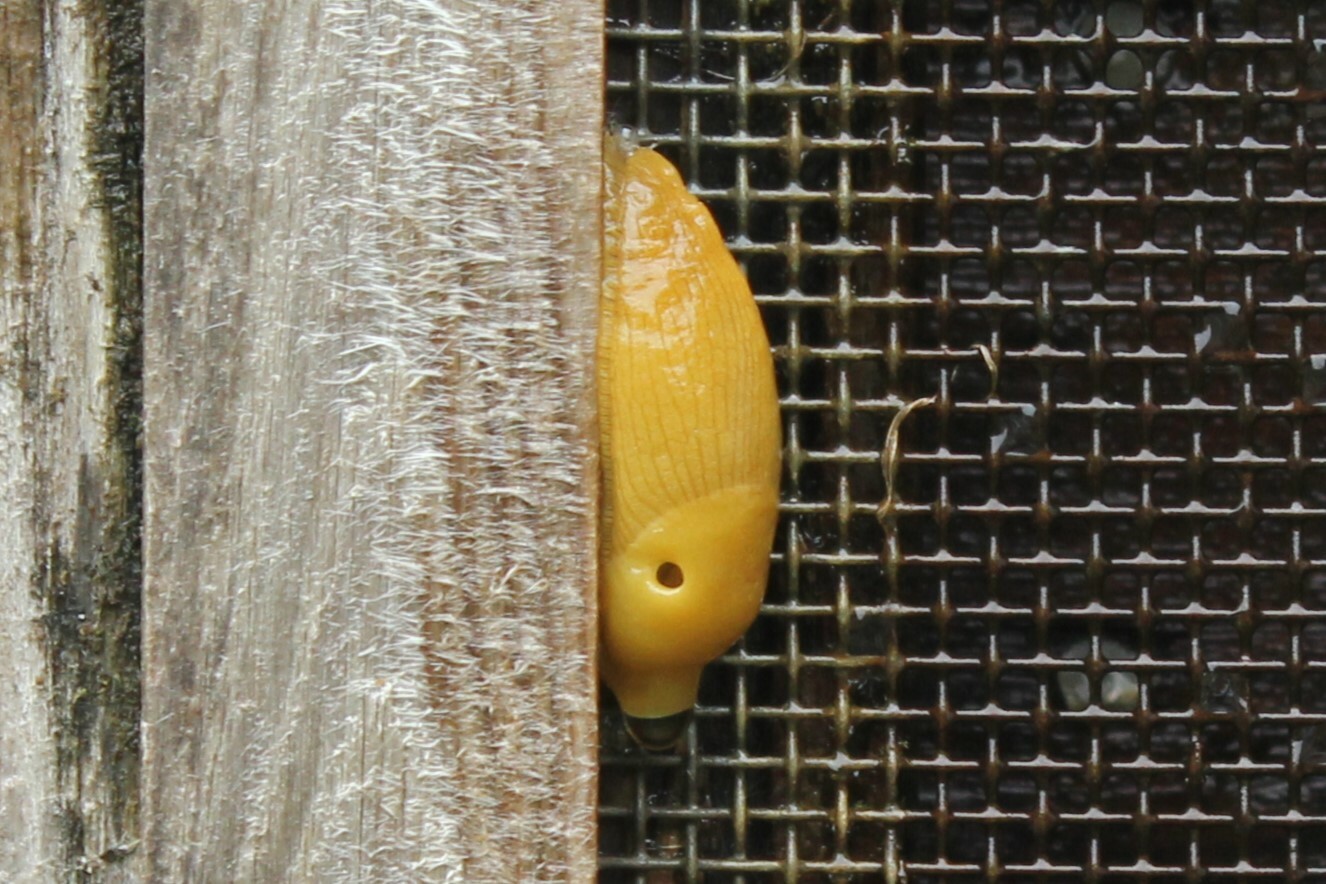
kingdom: Animalia
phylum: Mollusca
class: Gastropoda
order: Stylommatophora
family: Ariolimacidae
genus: Ariolimax
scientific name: Ariolimax columbianus
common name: Pacific banana slug
